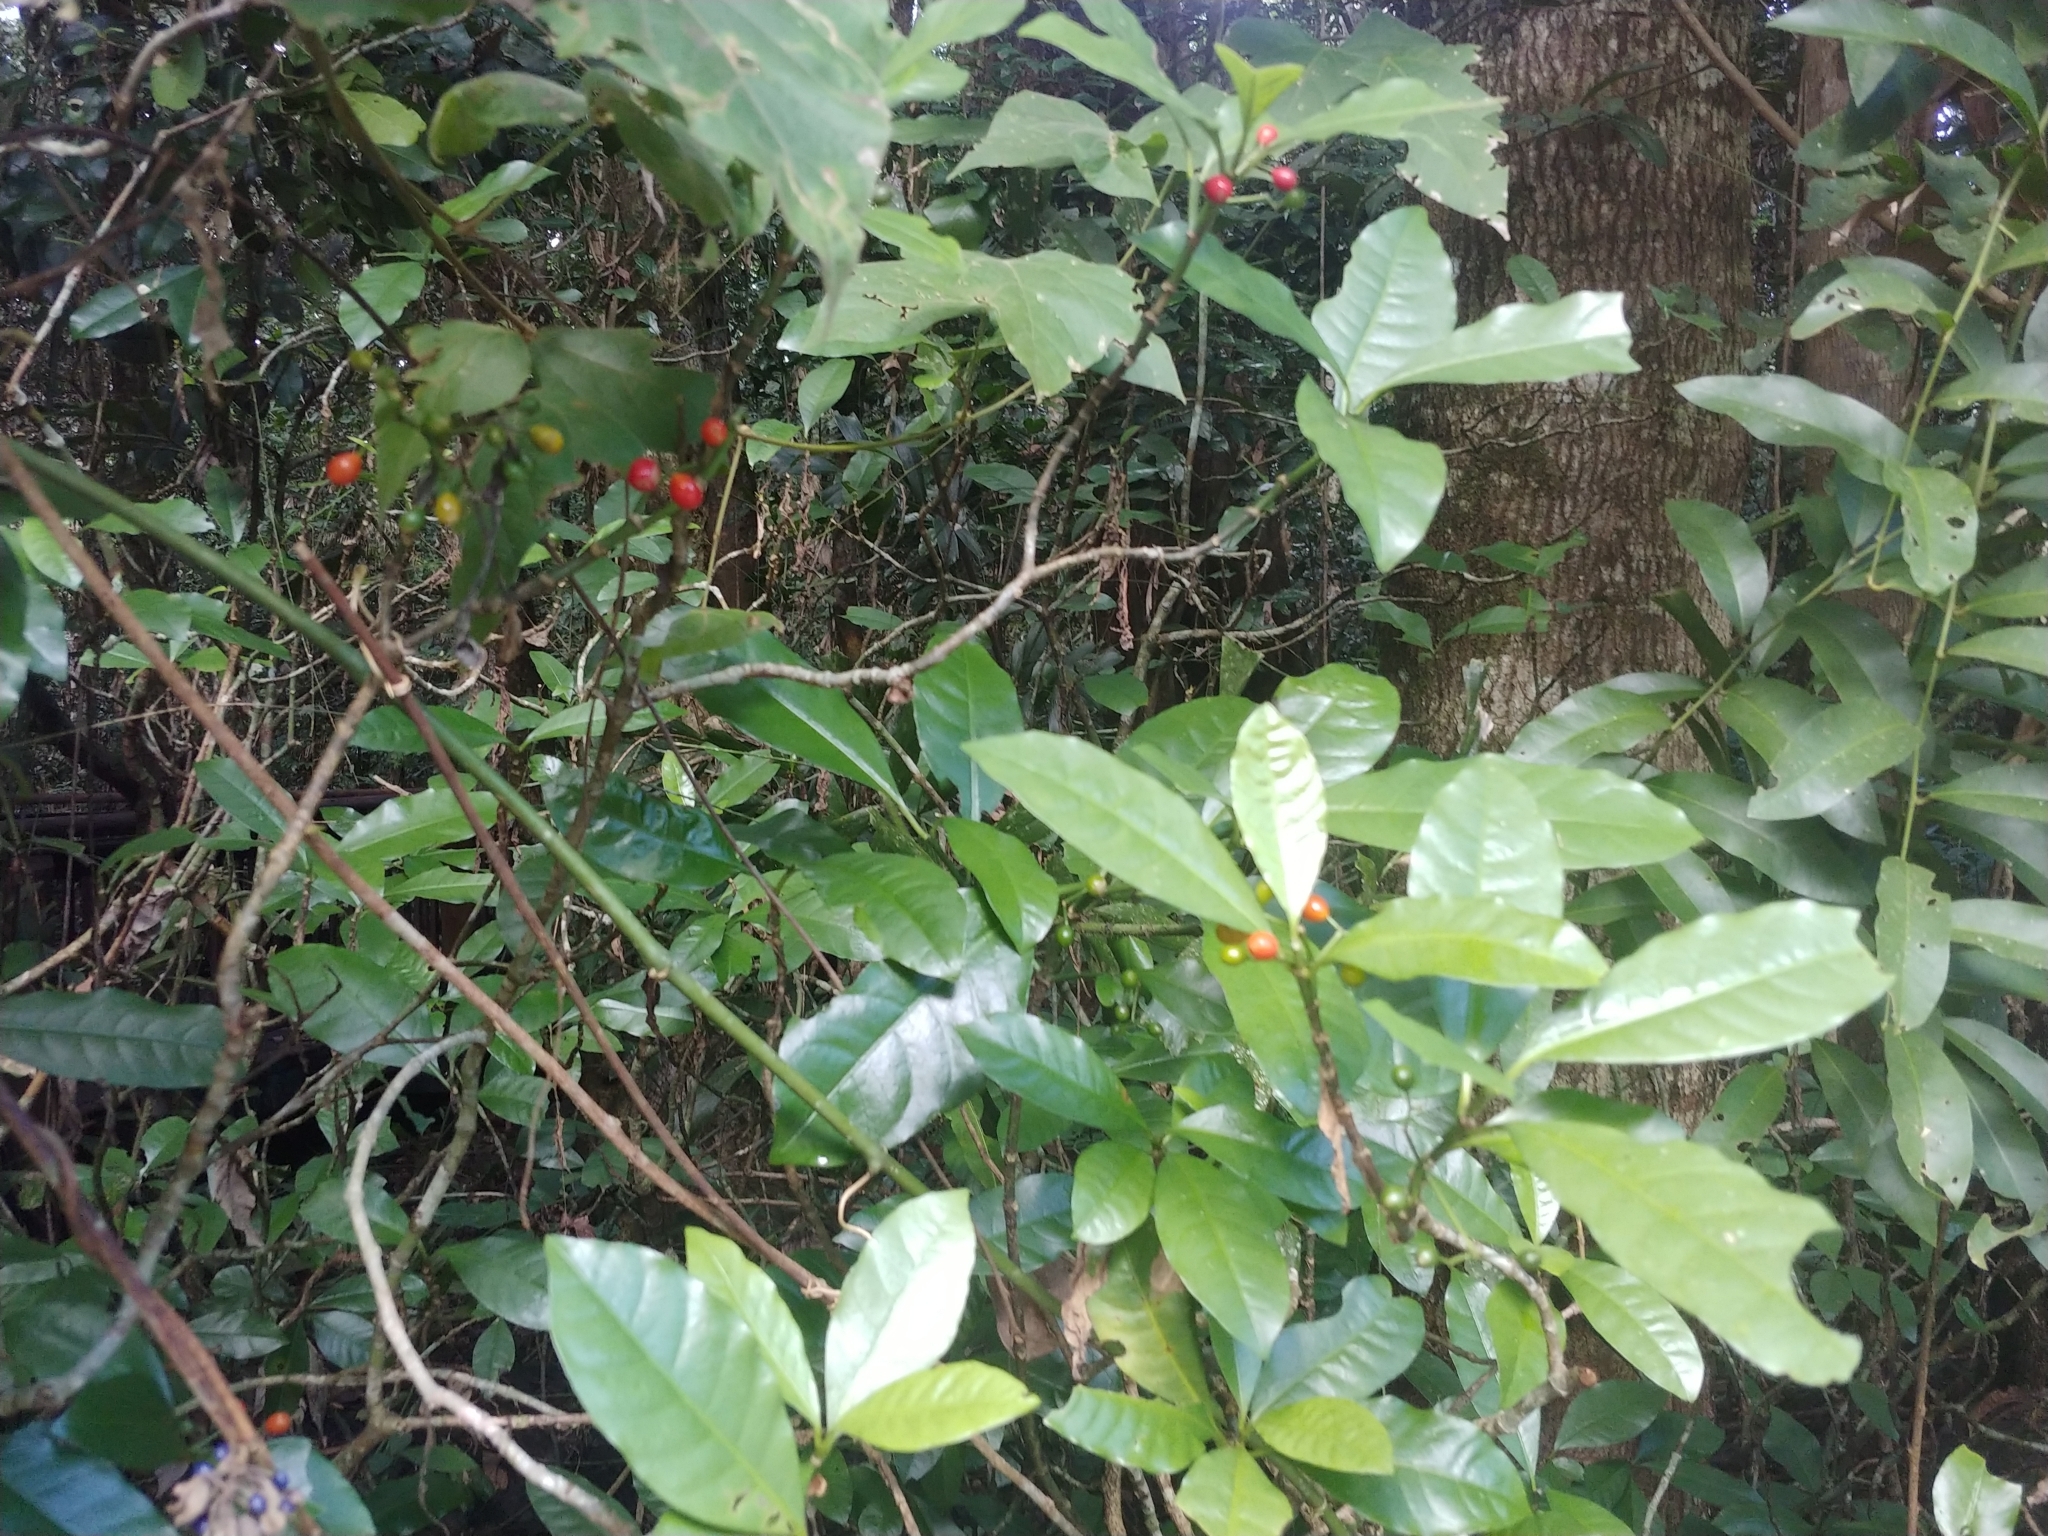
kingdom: Plantae
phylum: Tracheophyta
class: Magnoliopsida
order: Gentianales
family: Rubiaceae
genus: Eumachia
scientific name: Eumachia frutescens
